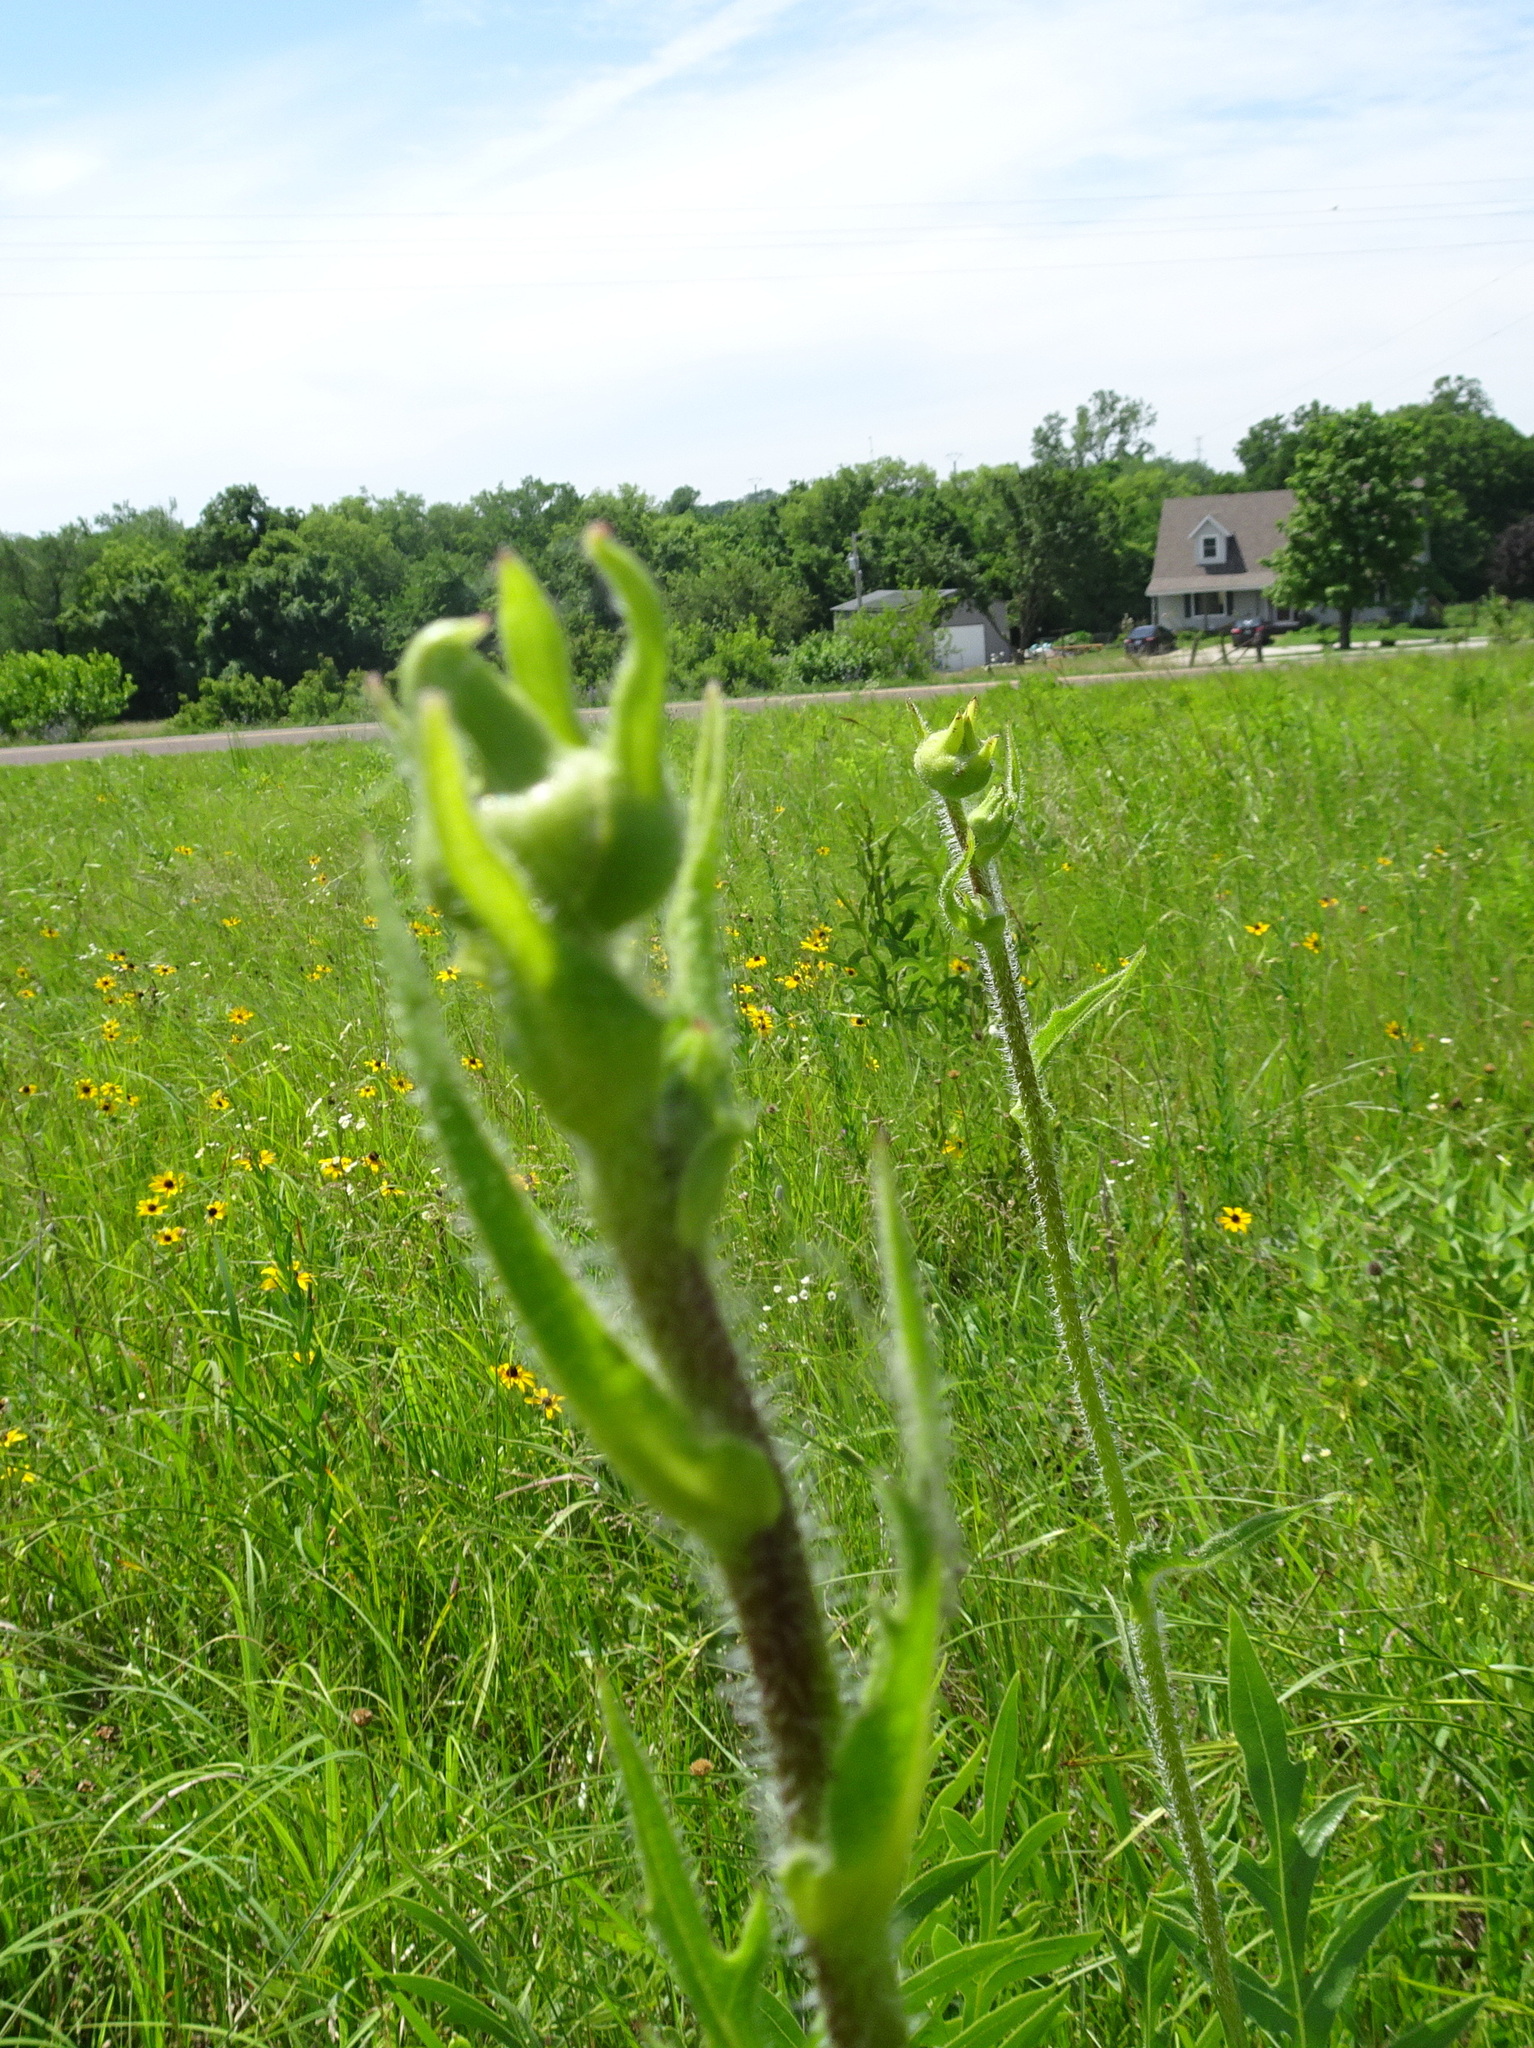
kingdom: Plantae
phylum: Tracheophyta
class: Magnoliopsida
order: Asterales
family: Asteraceae
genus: Silphium
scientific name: Silphium laciniatum
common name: Polarplant
